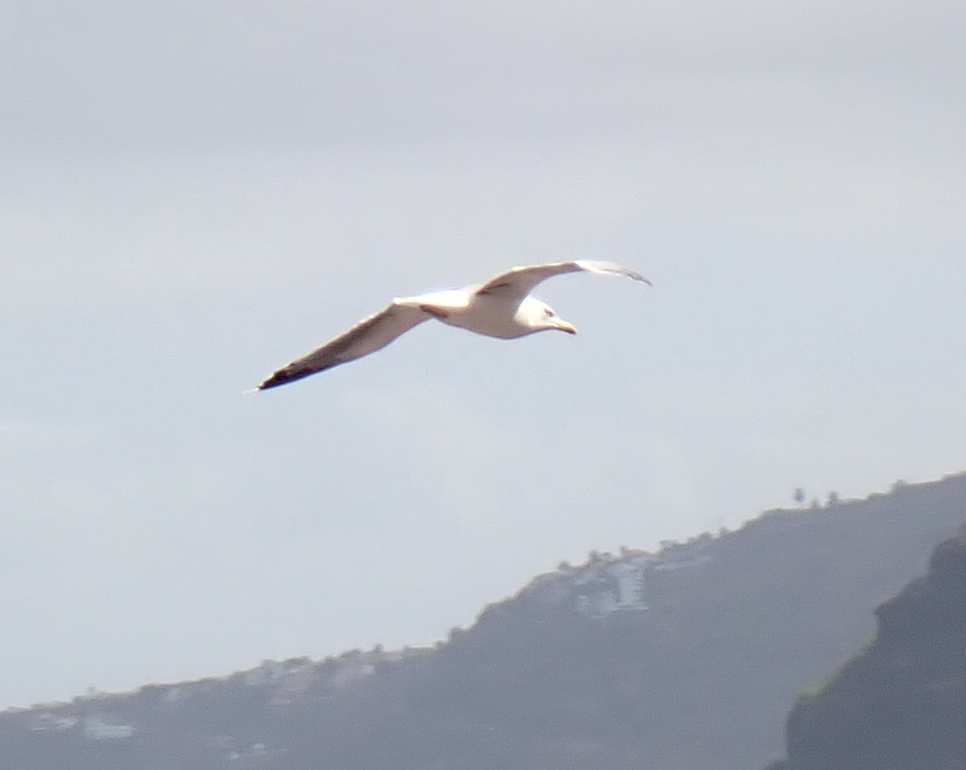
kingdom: Animalia
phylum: Chordata
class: Aves
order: Charadriiformes
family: Laridae
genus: Larus
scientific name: Larus michahellis
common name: Yellow-legged gull
